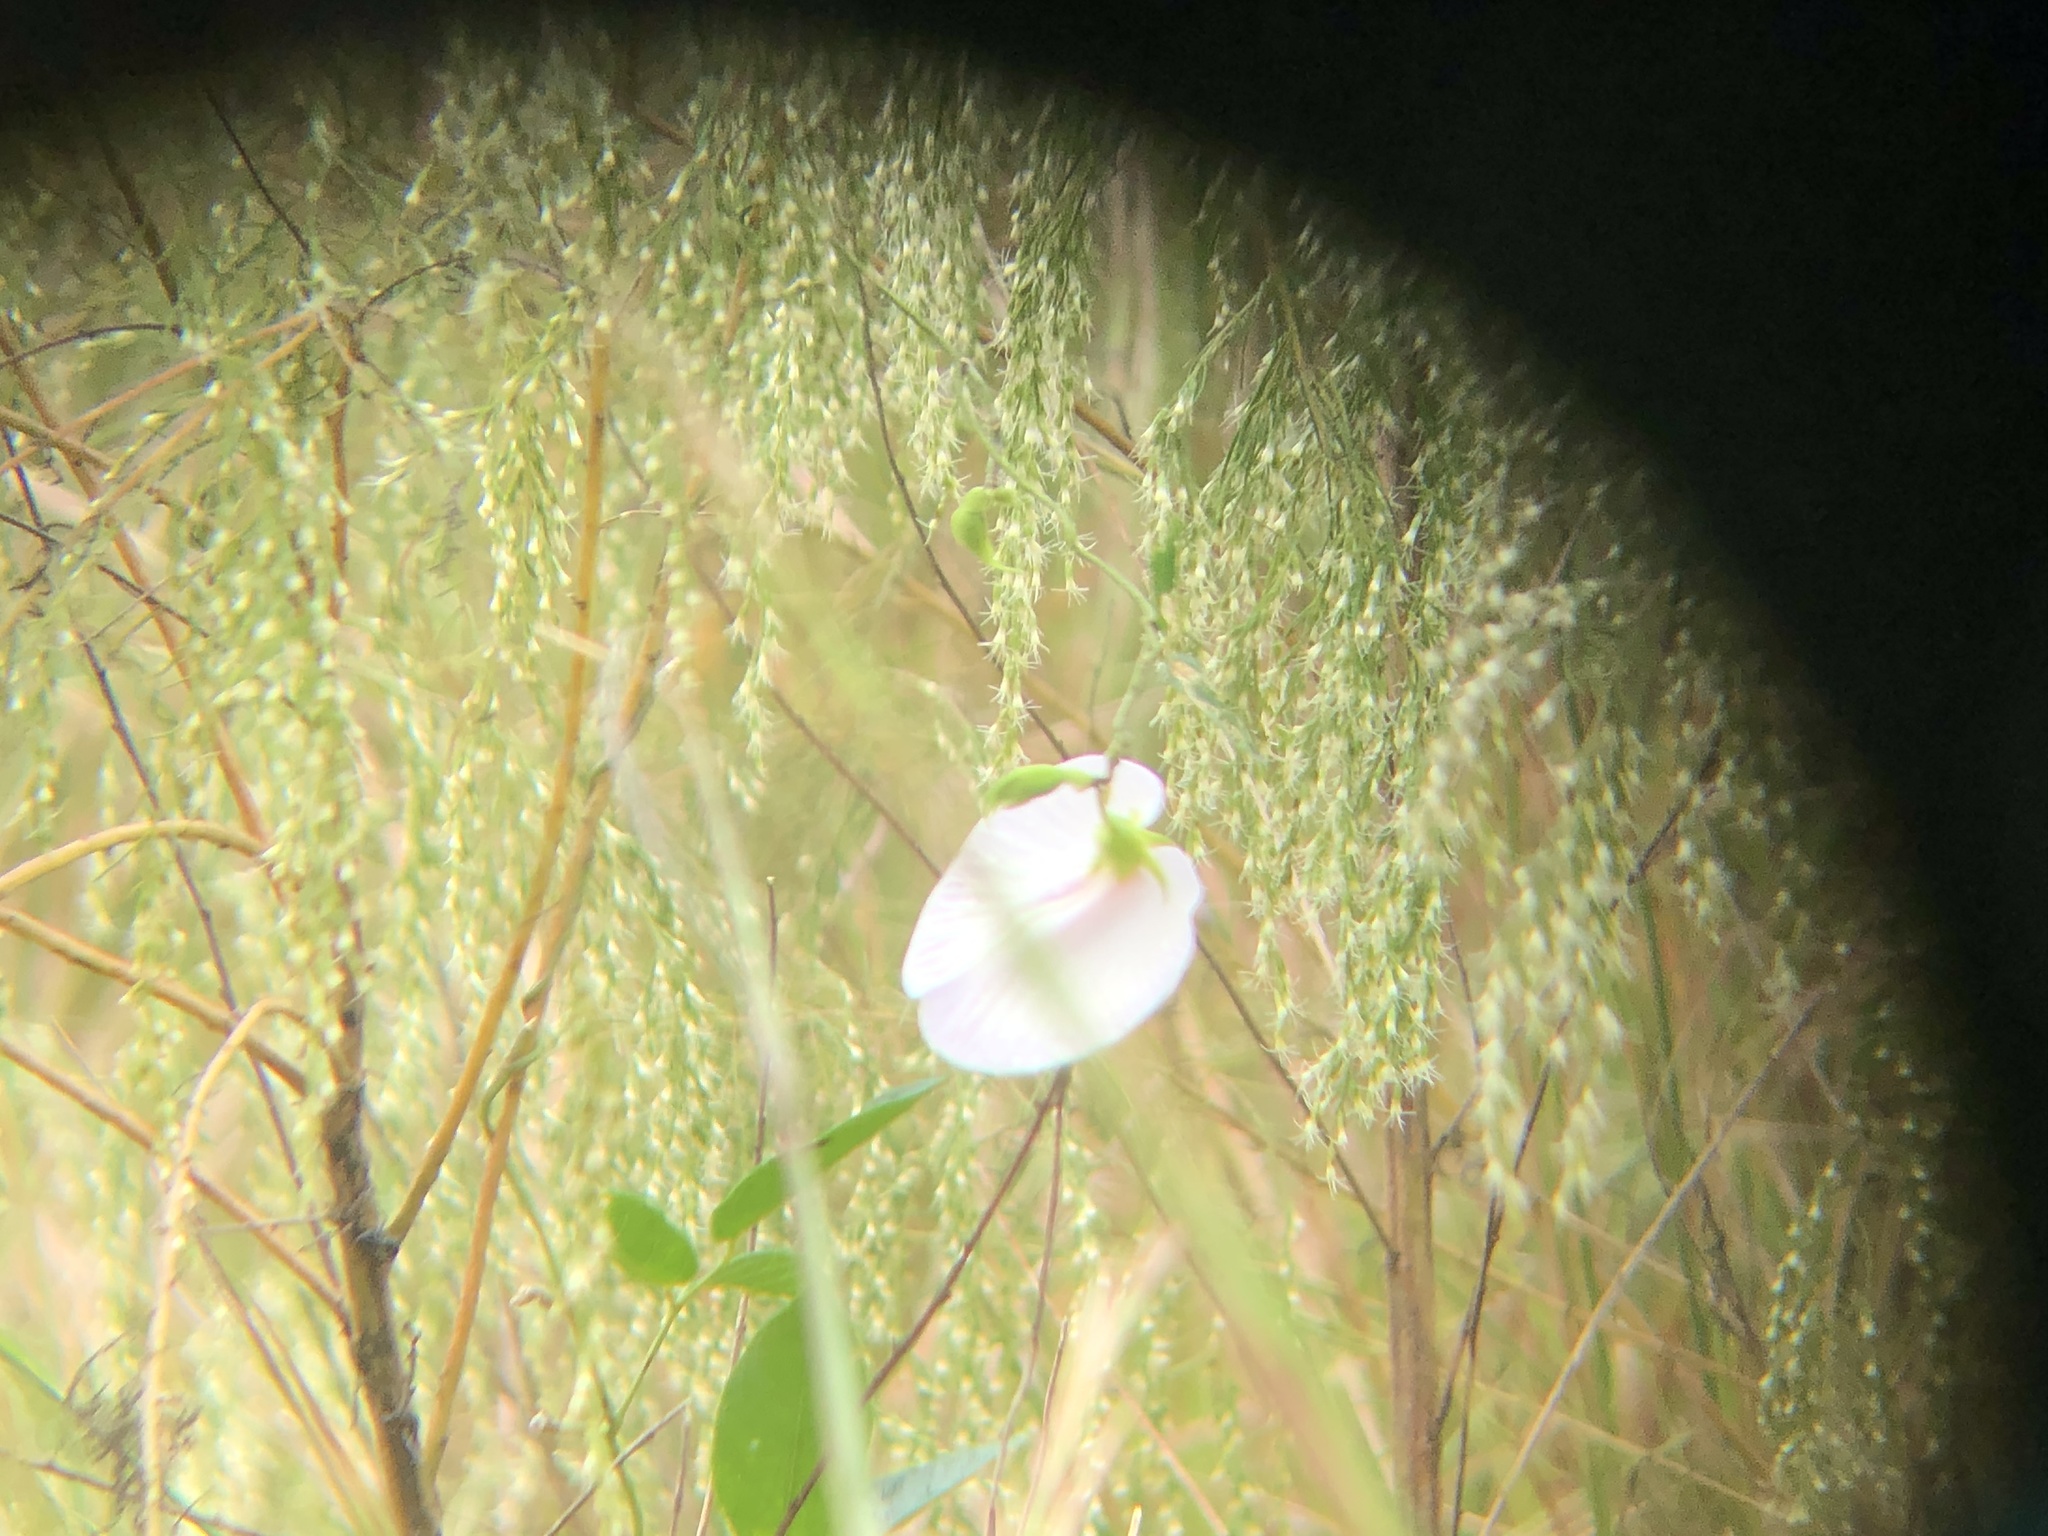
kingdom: Plantae
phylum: Tracheophyta
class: Magnoliopsida
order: Fabales
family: Fabaceae
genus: Centrosema
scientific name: Centrosema arenicola
